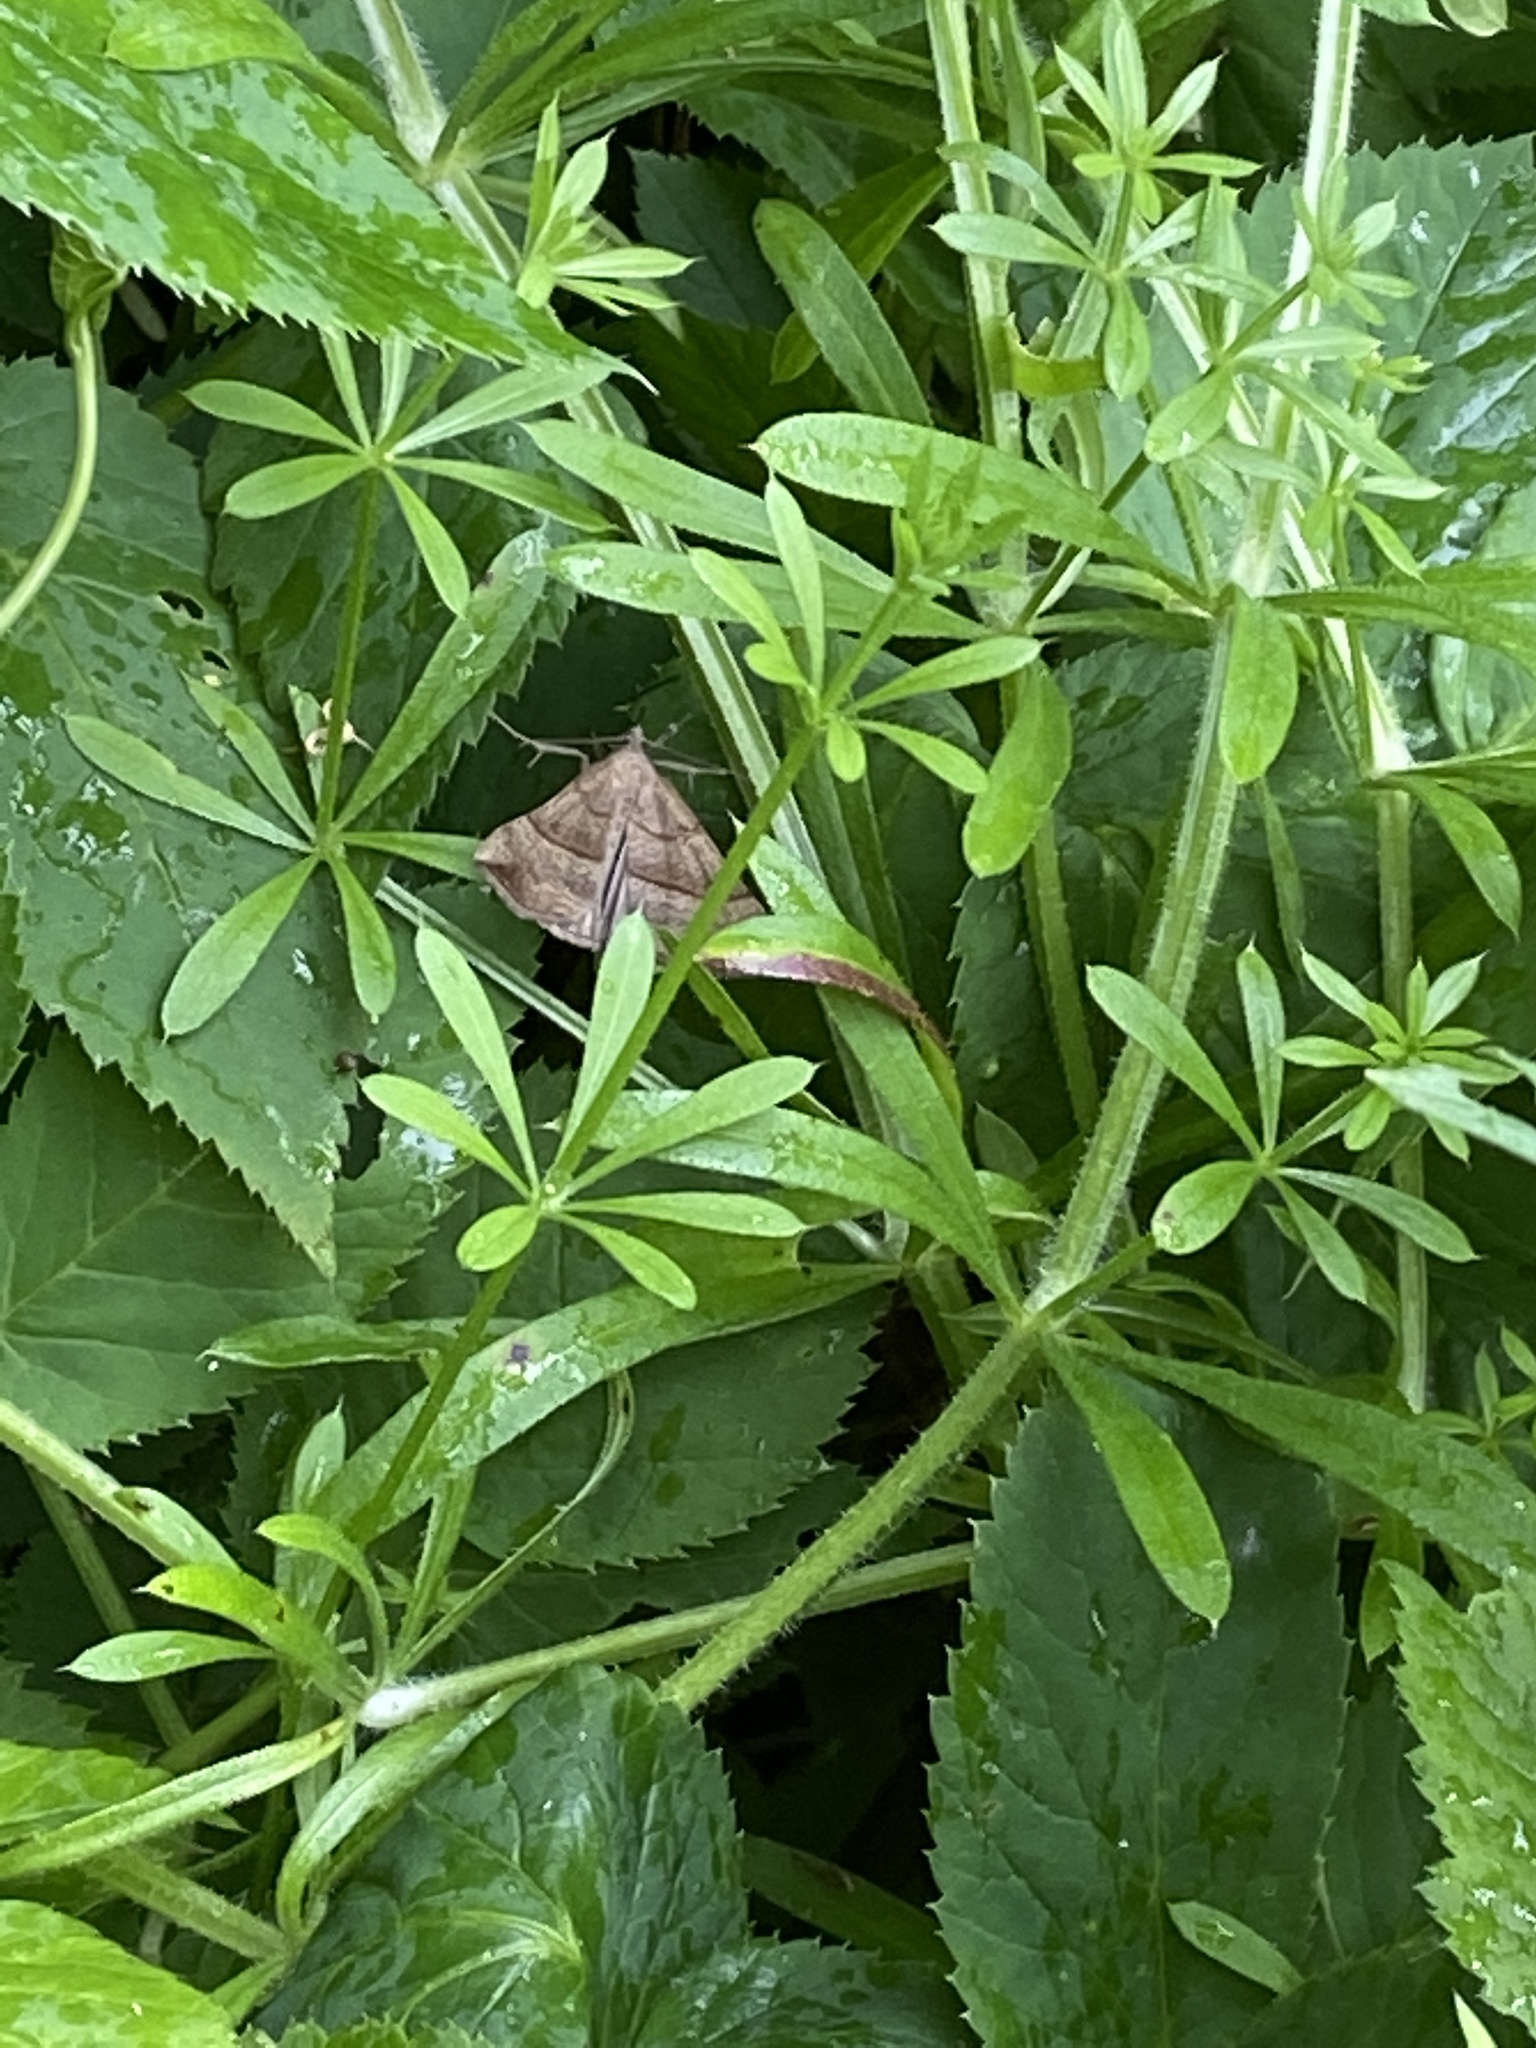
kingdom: Animalia
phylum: Arthropoda
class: Insecta
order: Lepidoptera
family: Erebidae
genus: Hypena
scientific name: Hypena proboscidalis
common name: Snout
